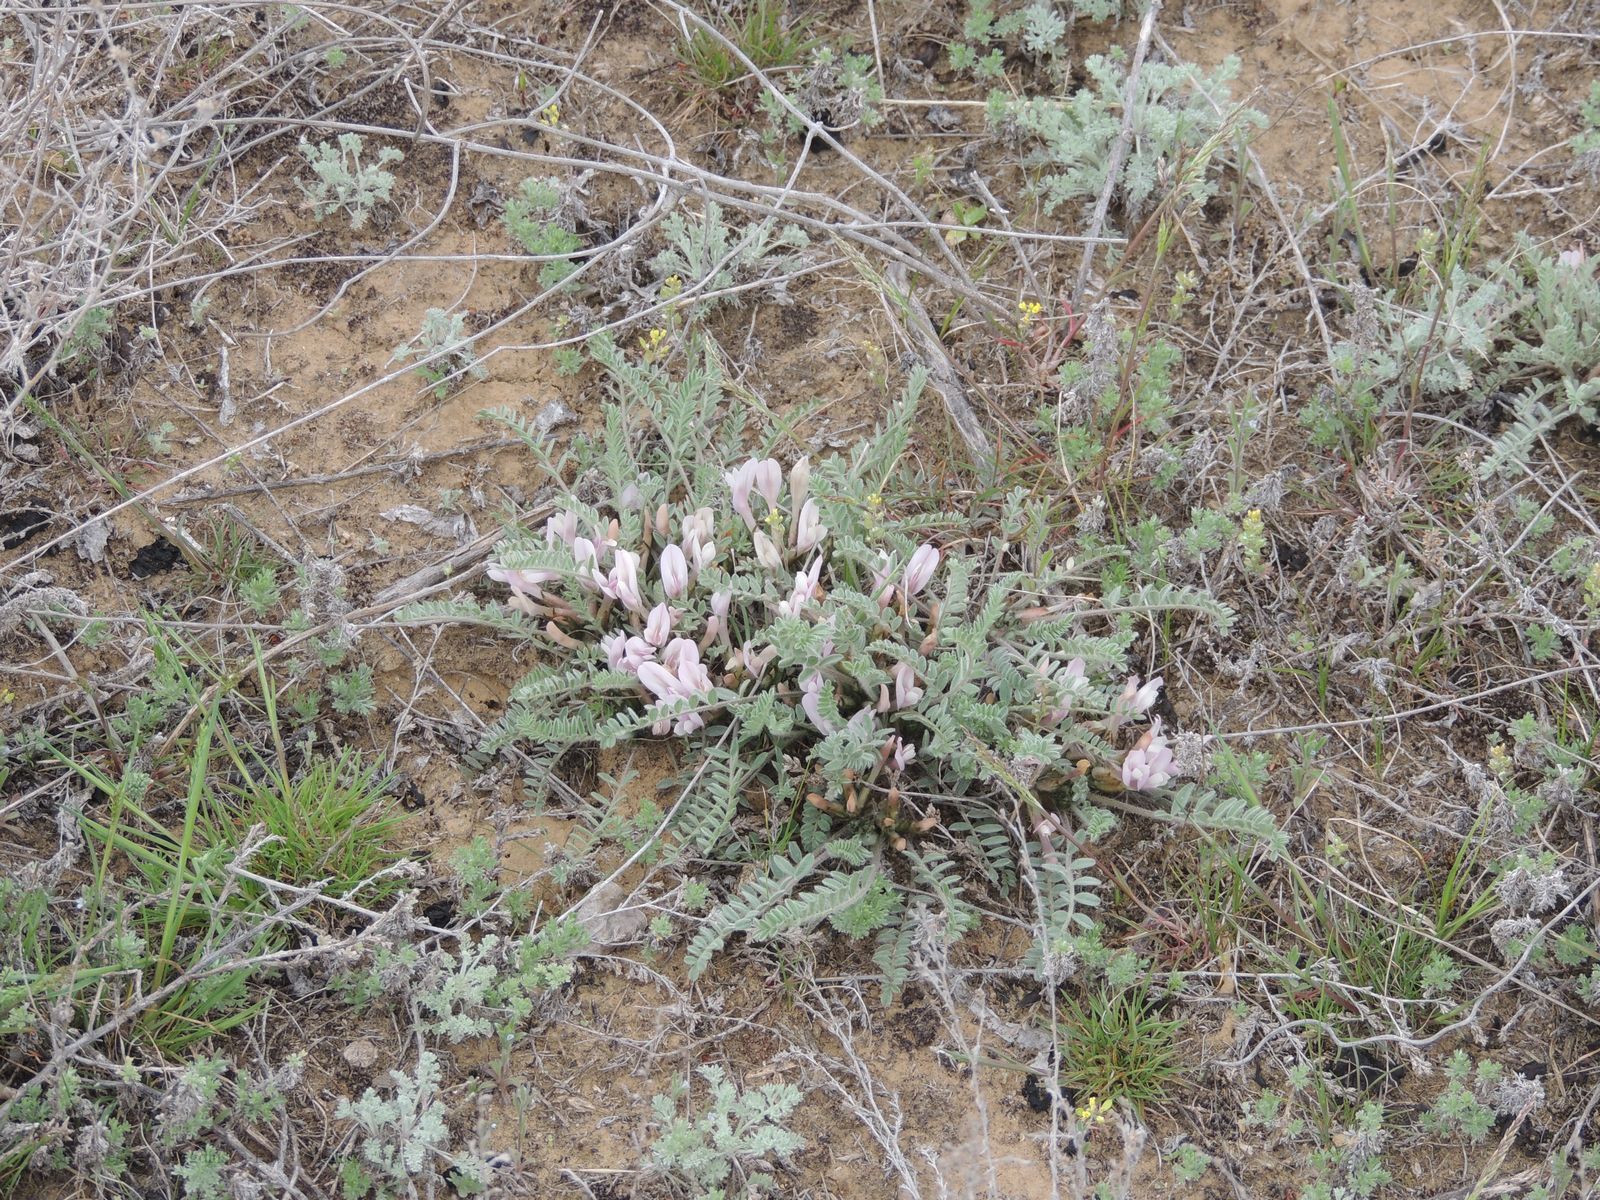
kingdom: Plantae
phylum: Tracheophyta
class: Magnoliopsida
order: Fabales
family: Fabaceae
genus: Astragalus
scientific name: Astragalus testiculatus
